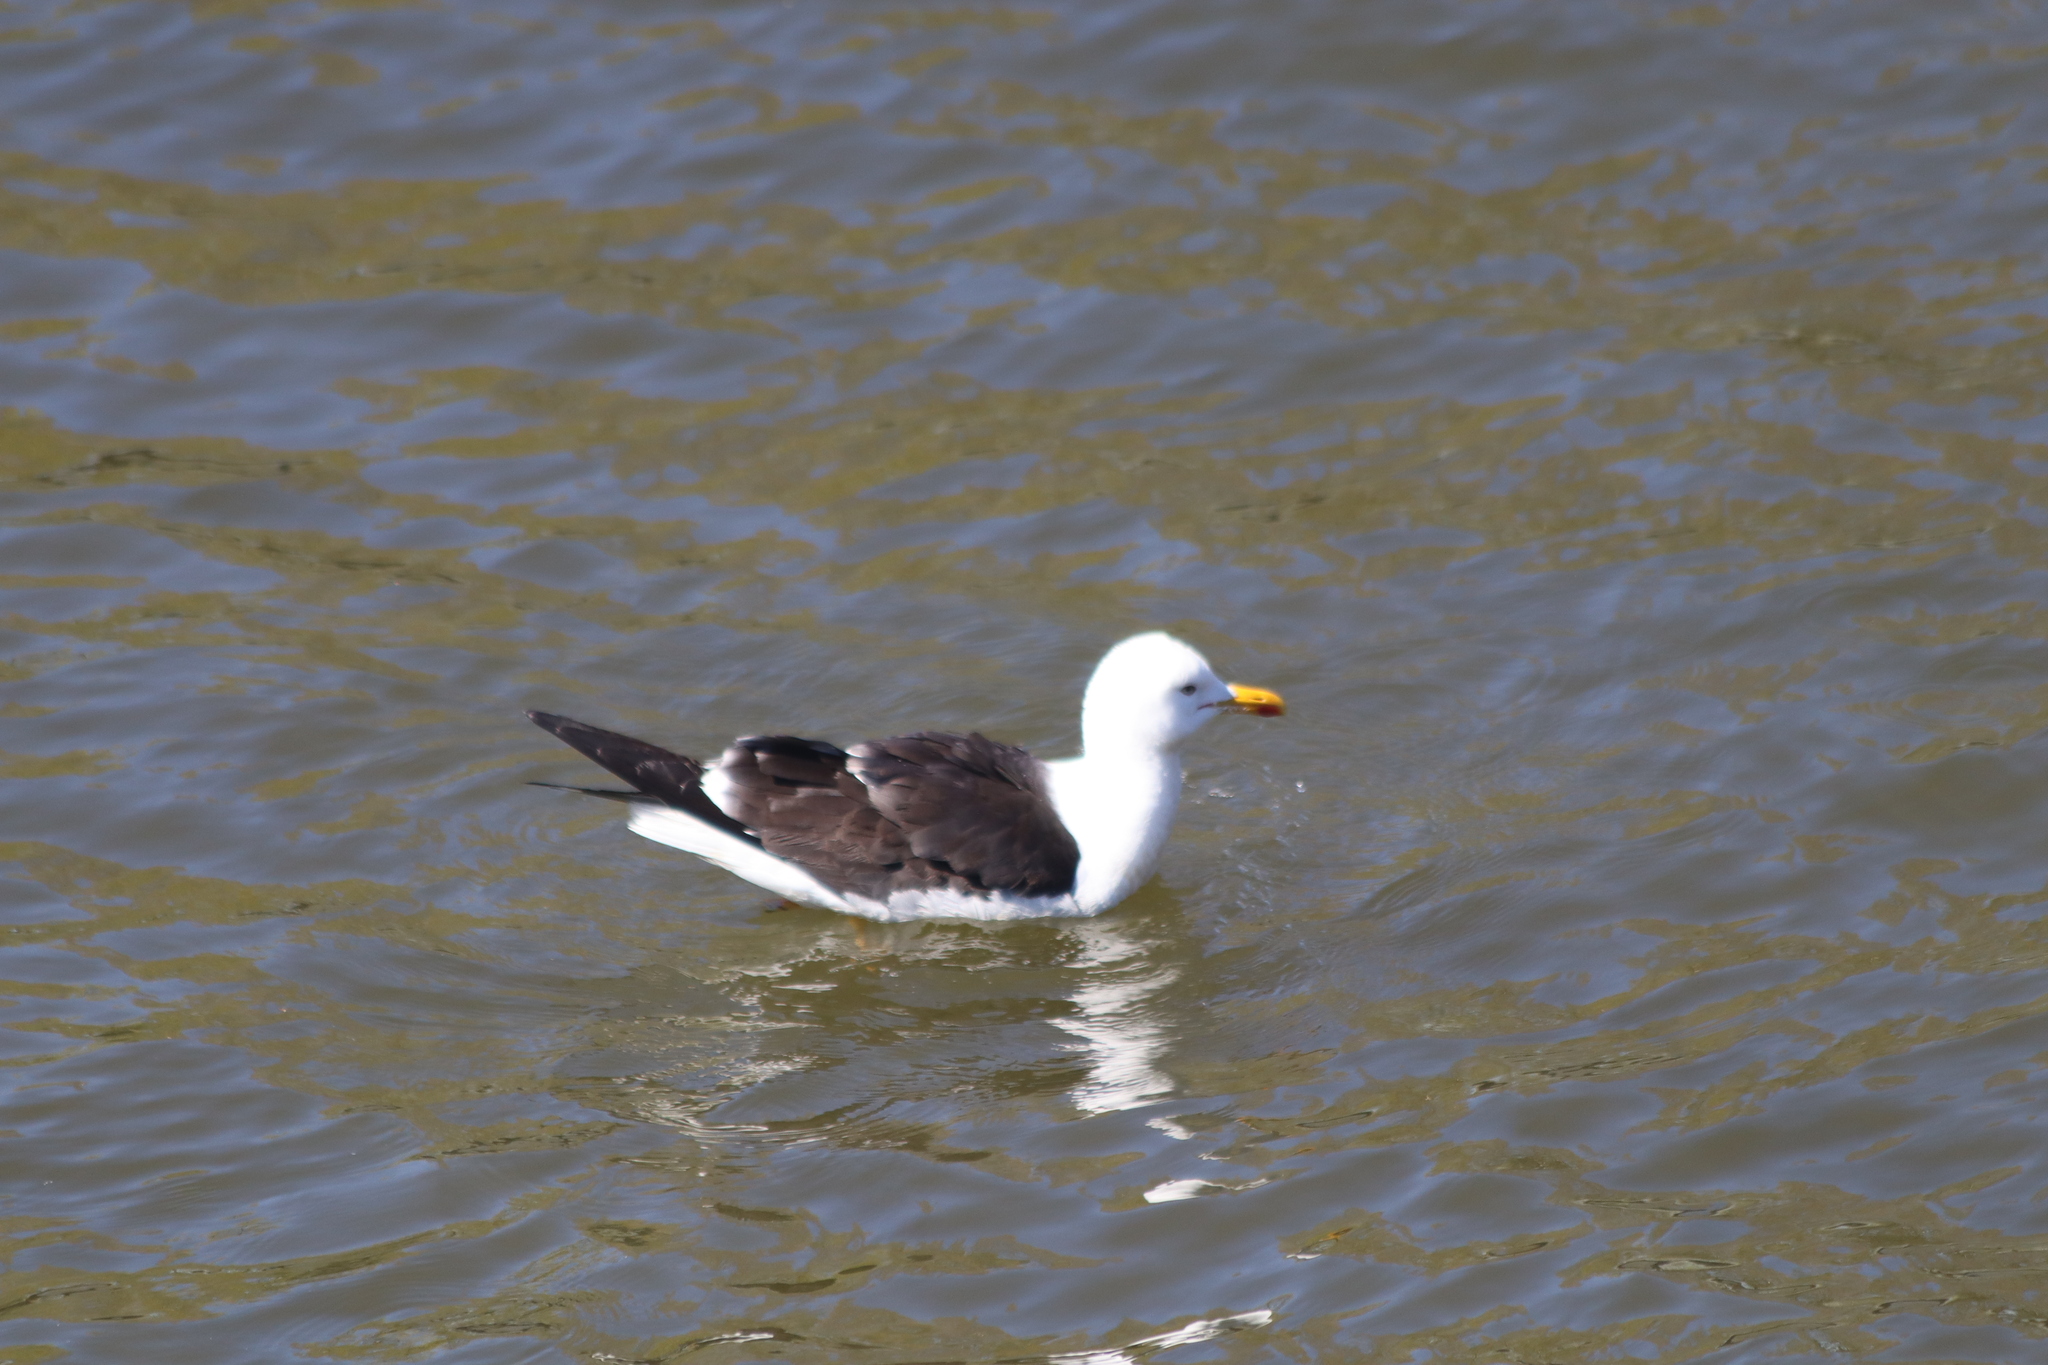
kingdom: Animalia
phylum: Chordata
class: Aves
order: Charadriiformes
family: Laridae
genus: Larus
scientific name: Larus fuscus
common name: Lesser black-backed gull
